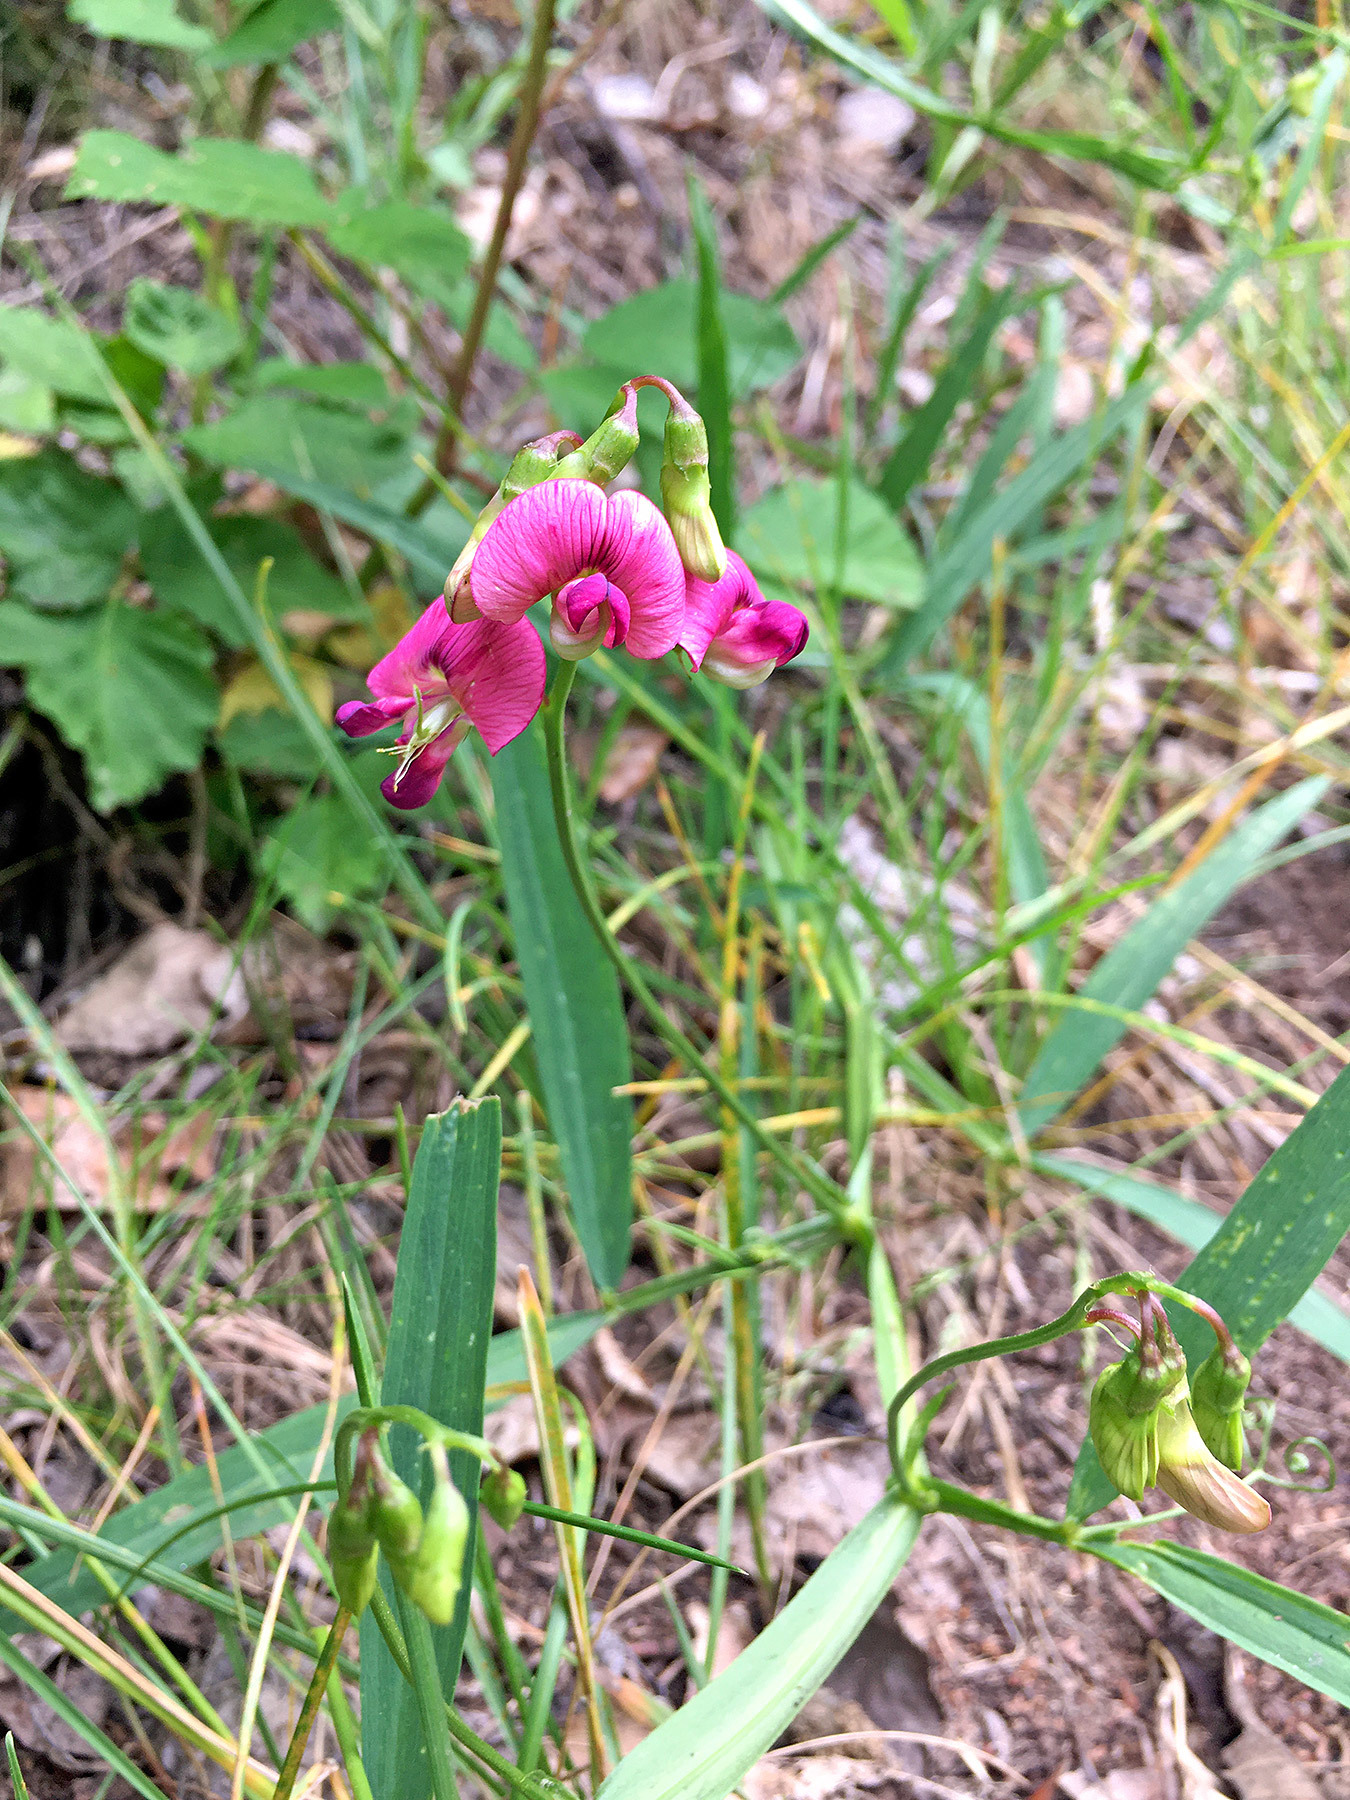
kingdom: Plantae
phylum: Tracheophyta
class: Magnoliopsida
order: Fabales
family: Fabaceae
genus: Lathyrus
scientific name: Lathyrus sylvestris
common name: Flat pea
